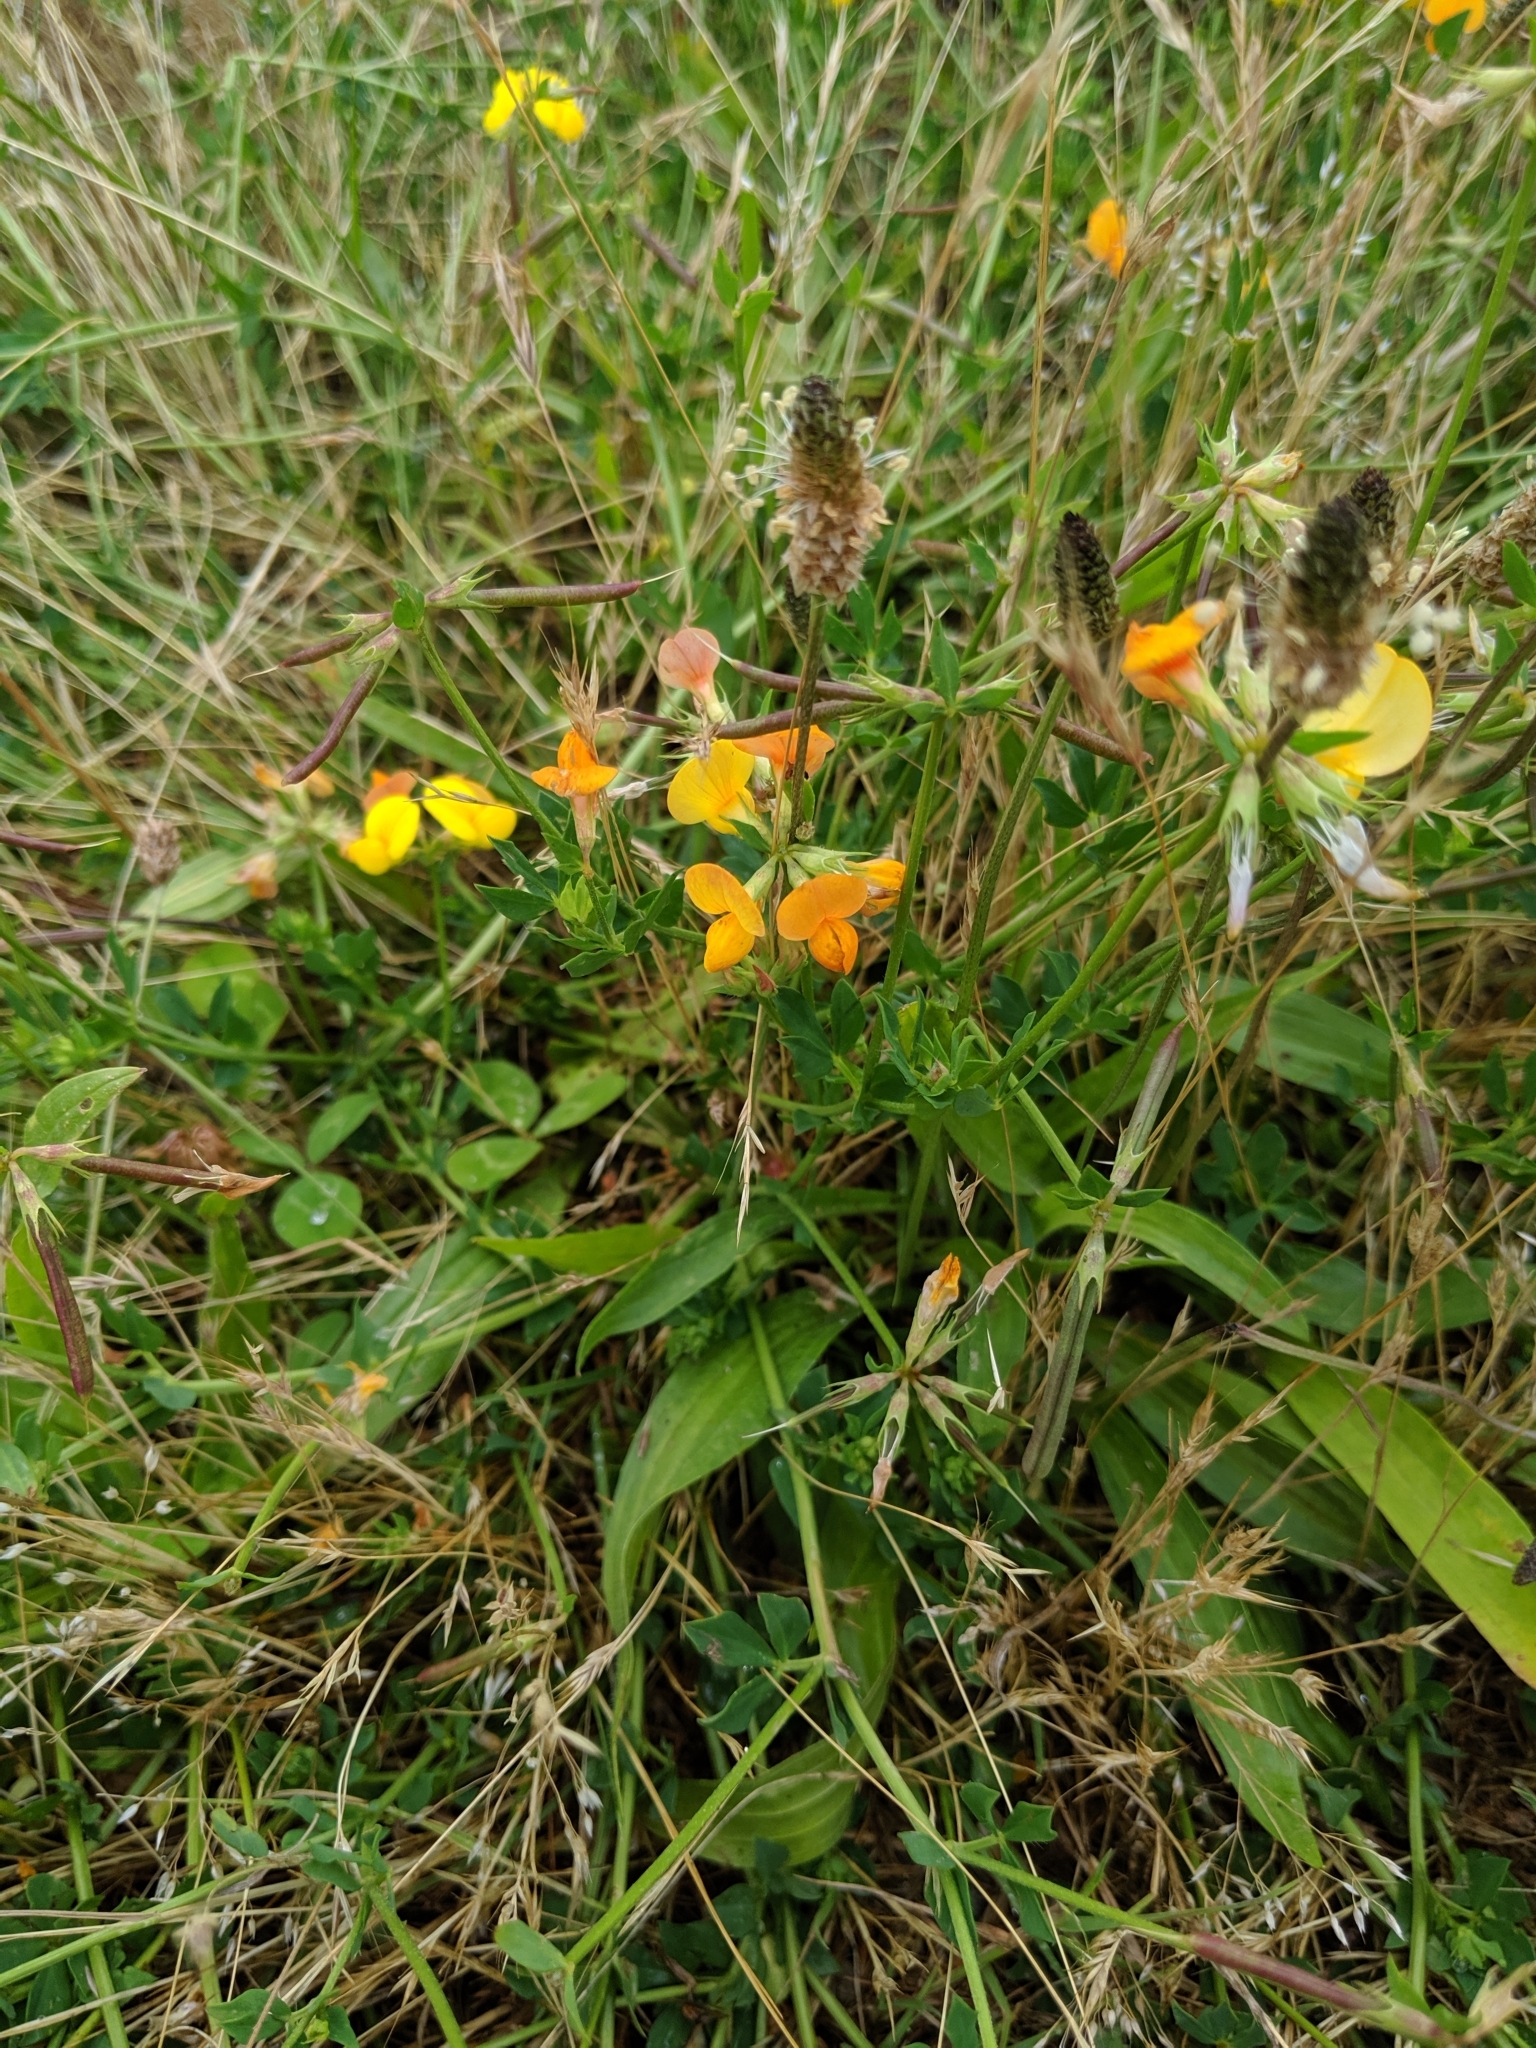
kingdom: Plantae
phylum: Tracheophyta
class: Magnoliopsida
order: Fabales
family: Fabaceae
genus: Lotus
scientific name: Lotus corniculatus
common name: Common bird's-foot-trefoil
